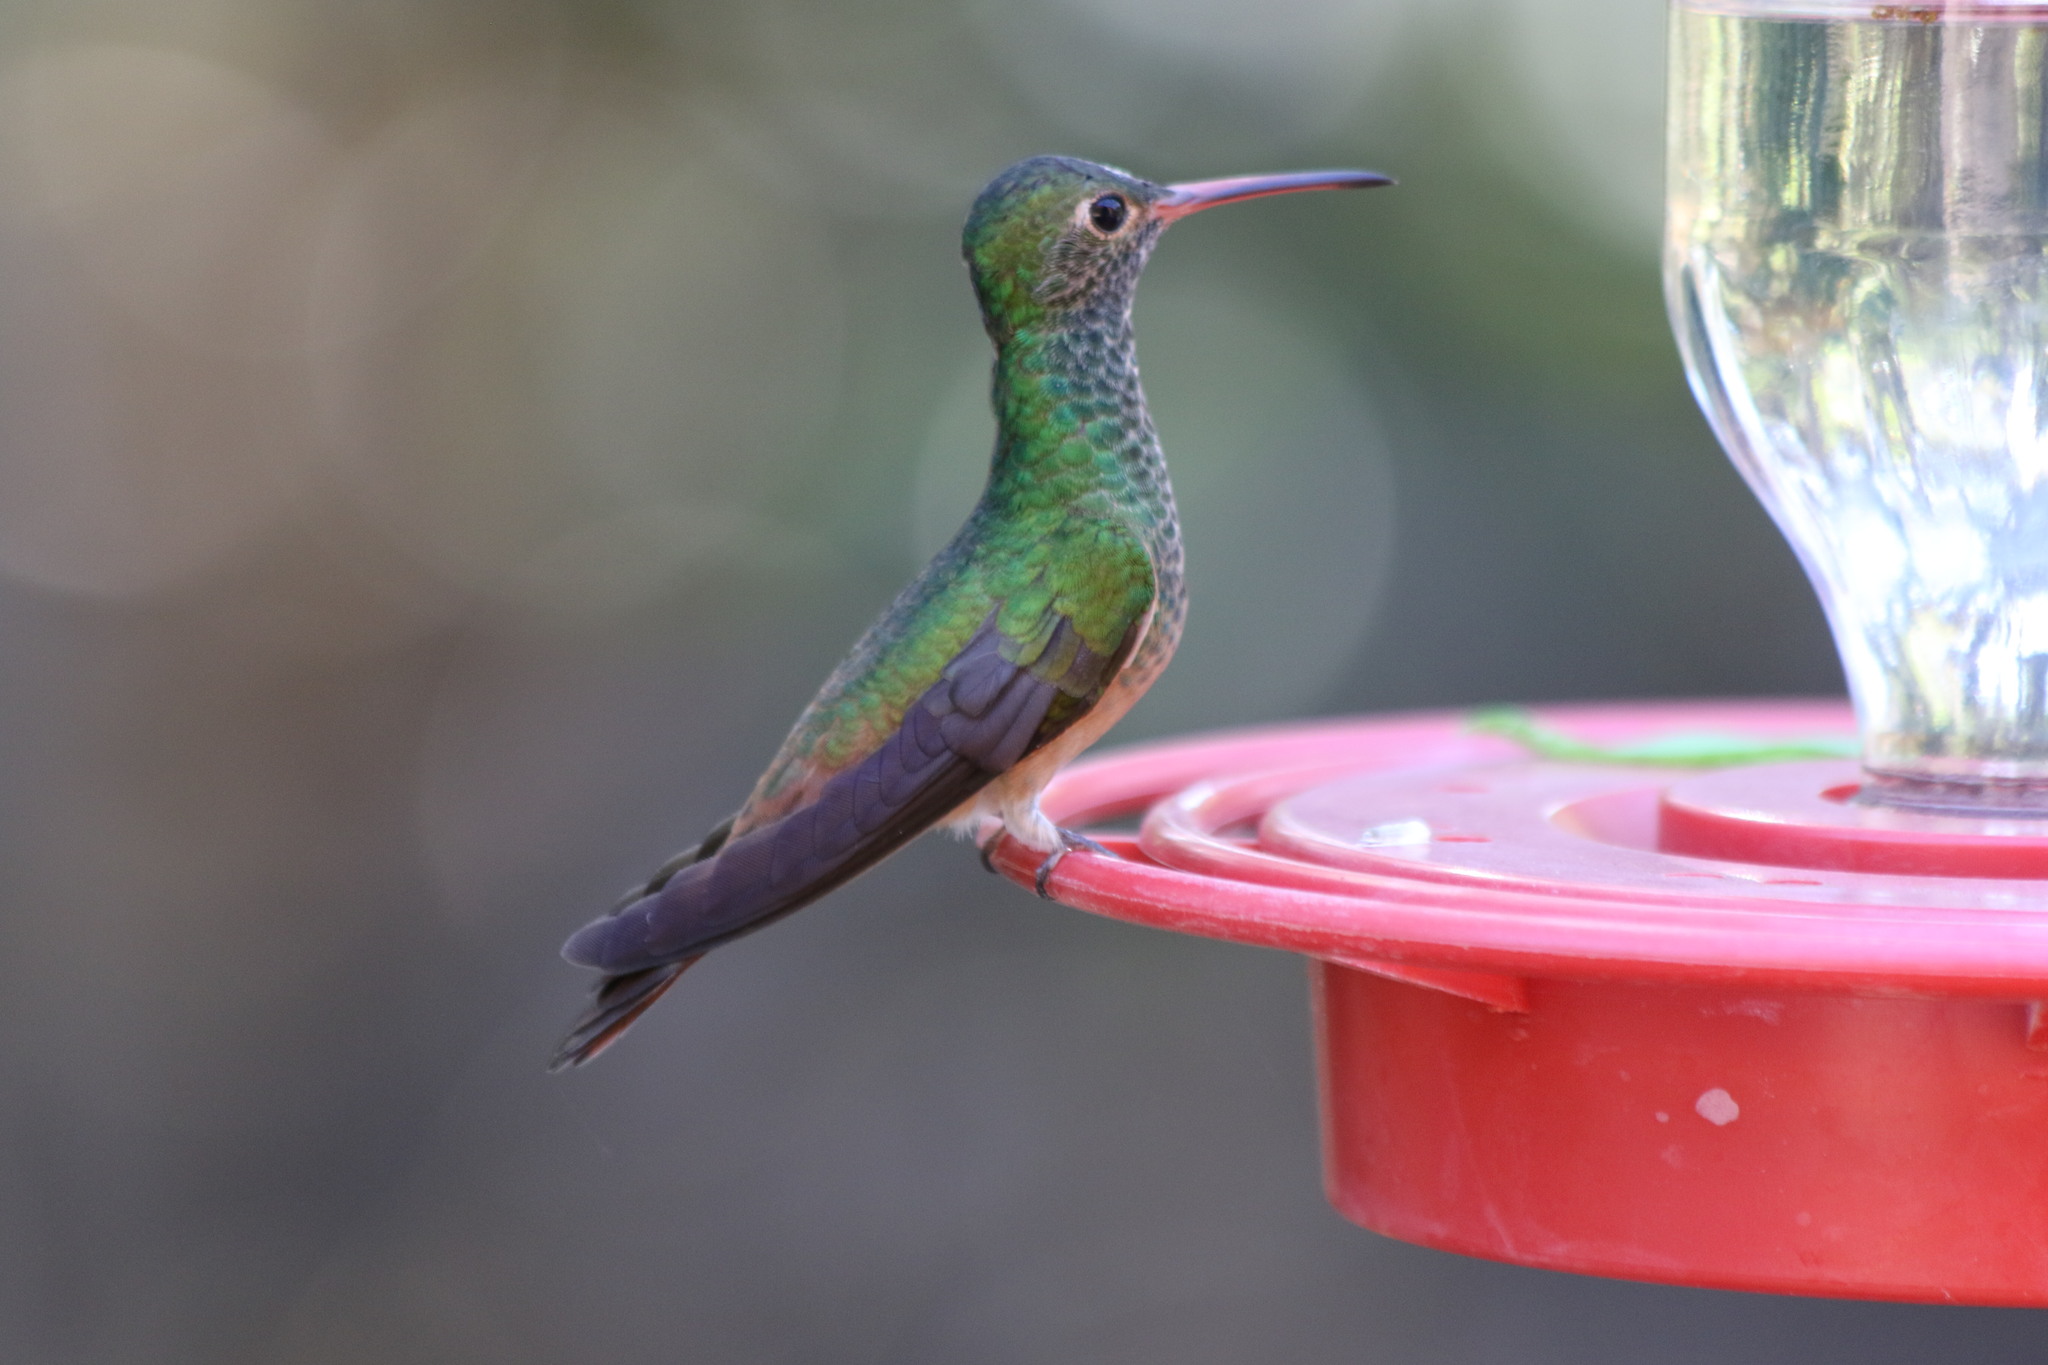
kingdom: Animalia
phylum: Chordata
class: Aves
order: Apodiformes
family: Trochilidae
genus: Amazilia
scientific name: Amazilia yucatanensis
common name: Buff-bellied hummingbird
